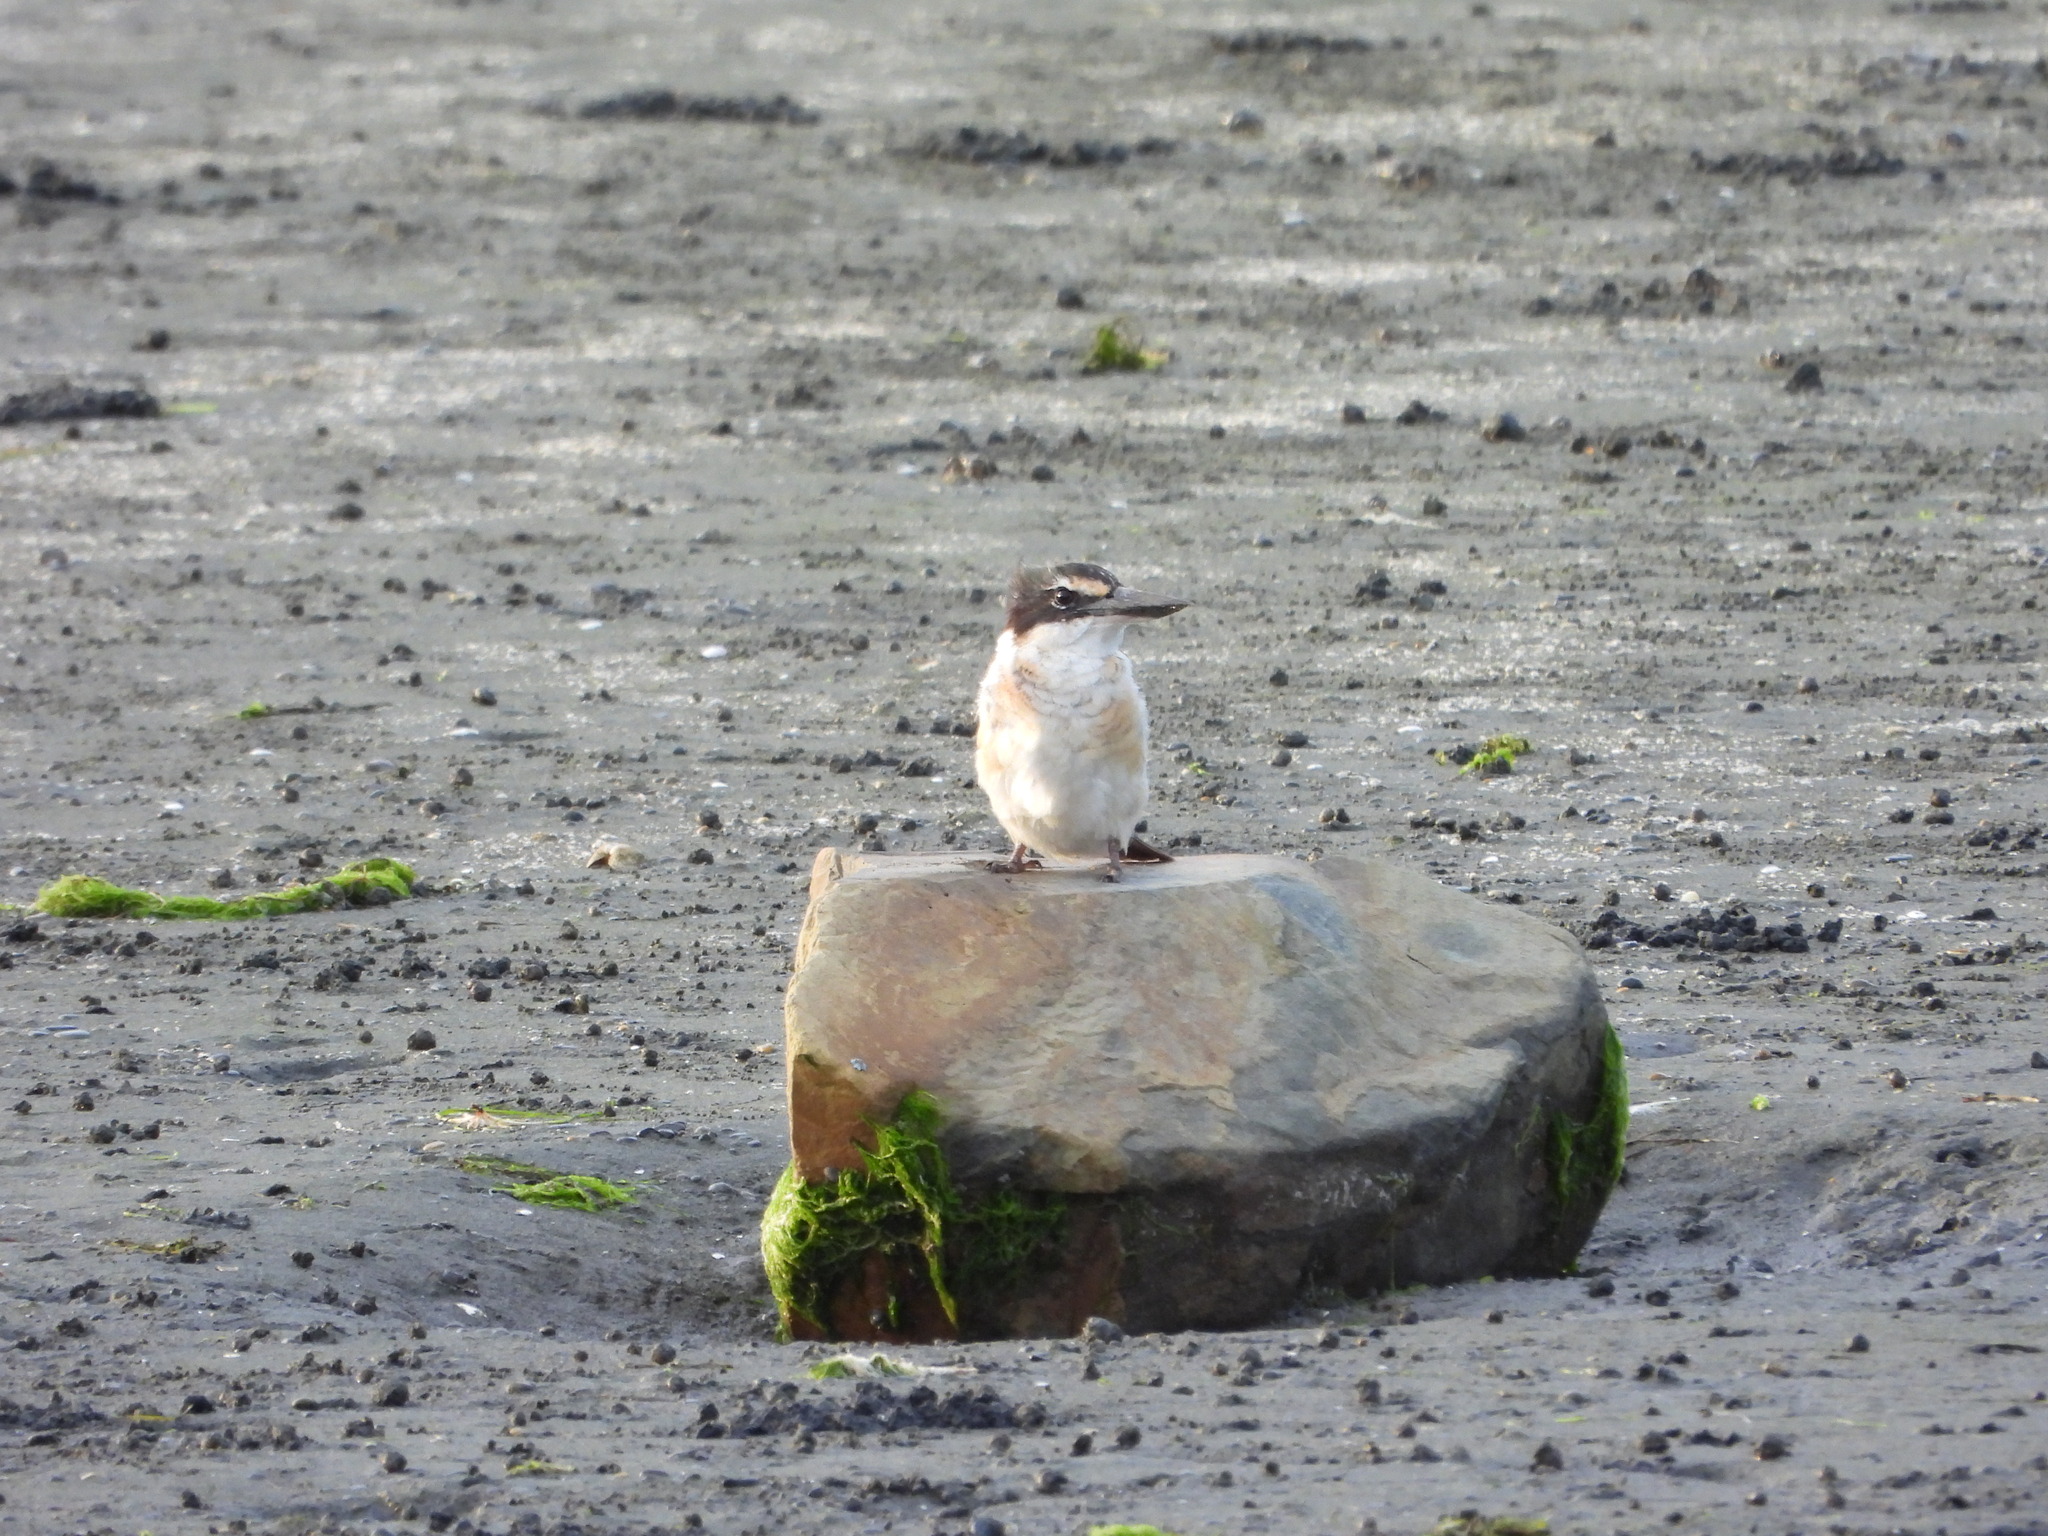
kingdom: Animalia
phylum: Chordata
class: Aves
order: Coraciiformes
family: Alcedinidae
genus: Todiramphus
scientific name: Todiramphus sanctus
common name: Sacred kingfisher
